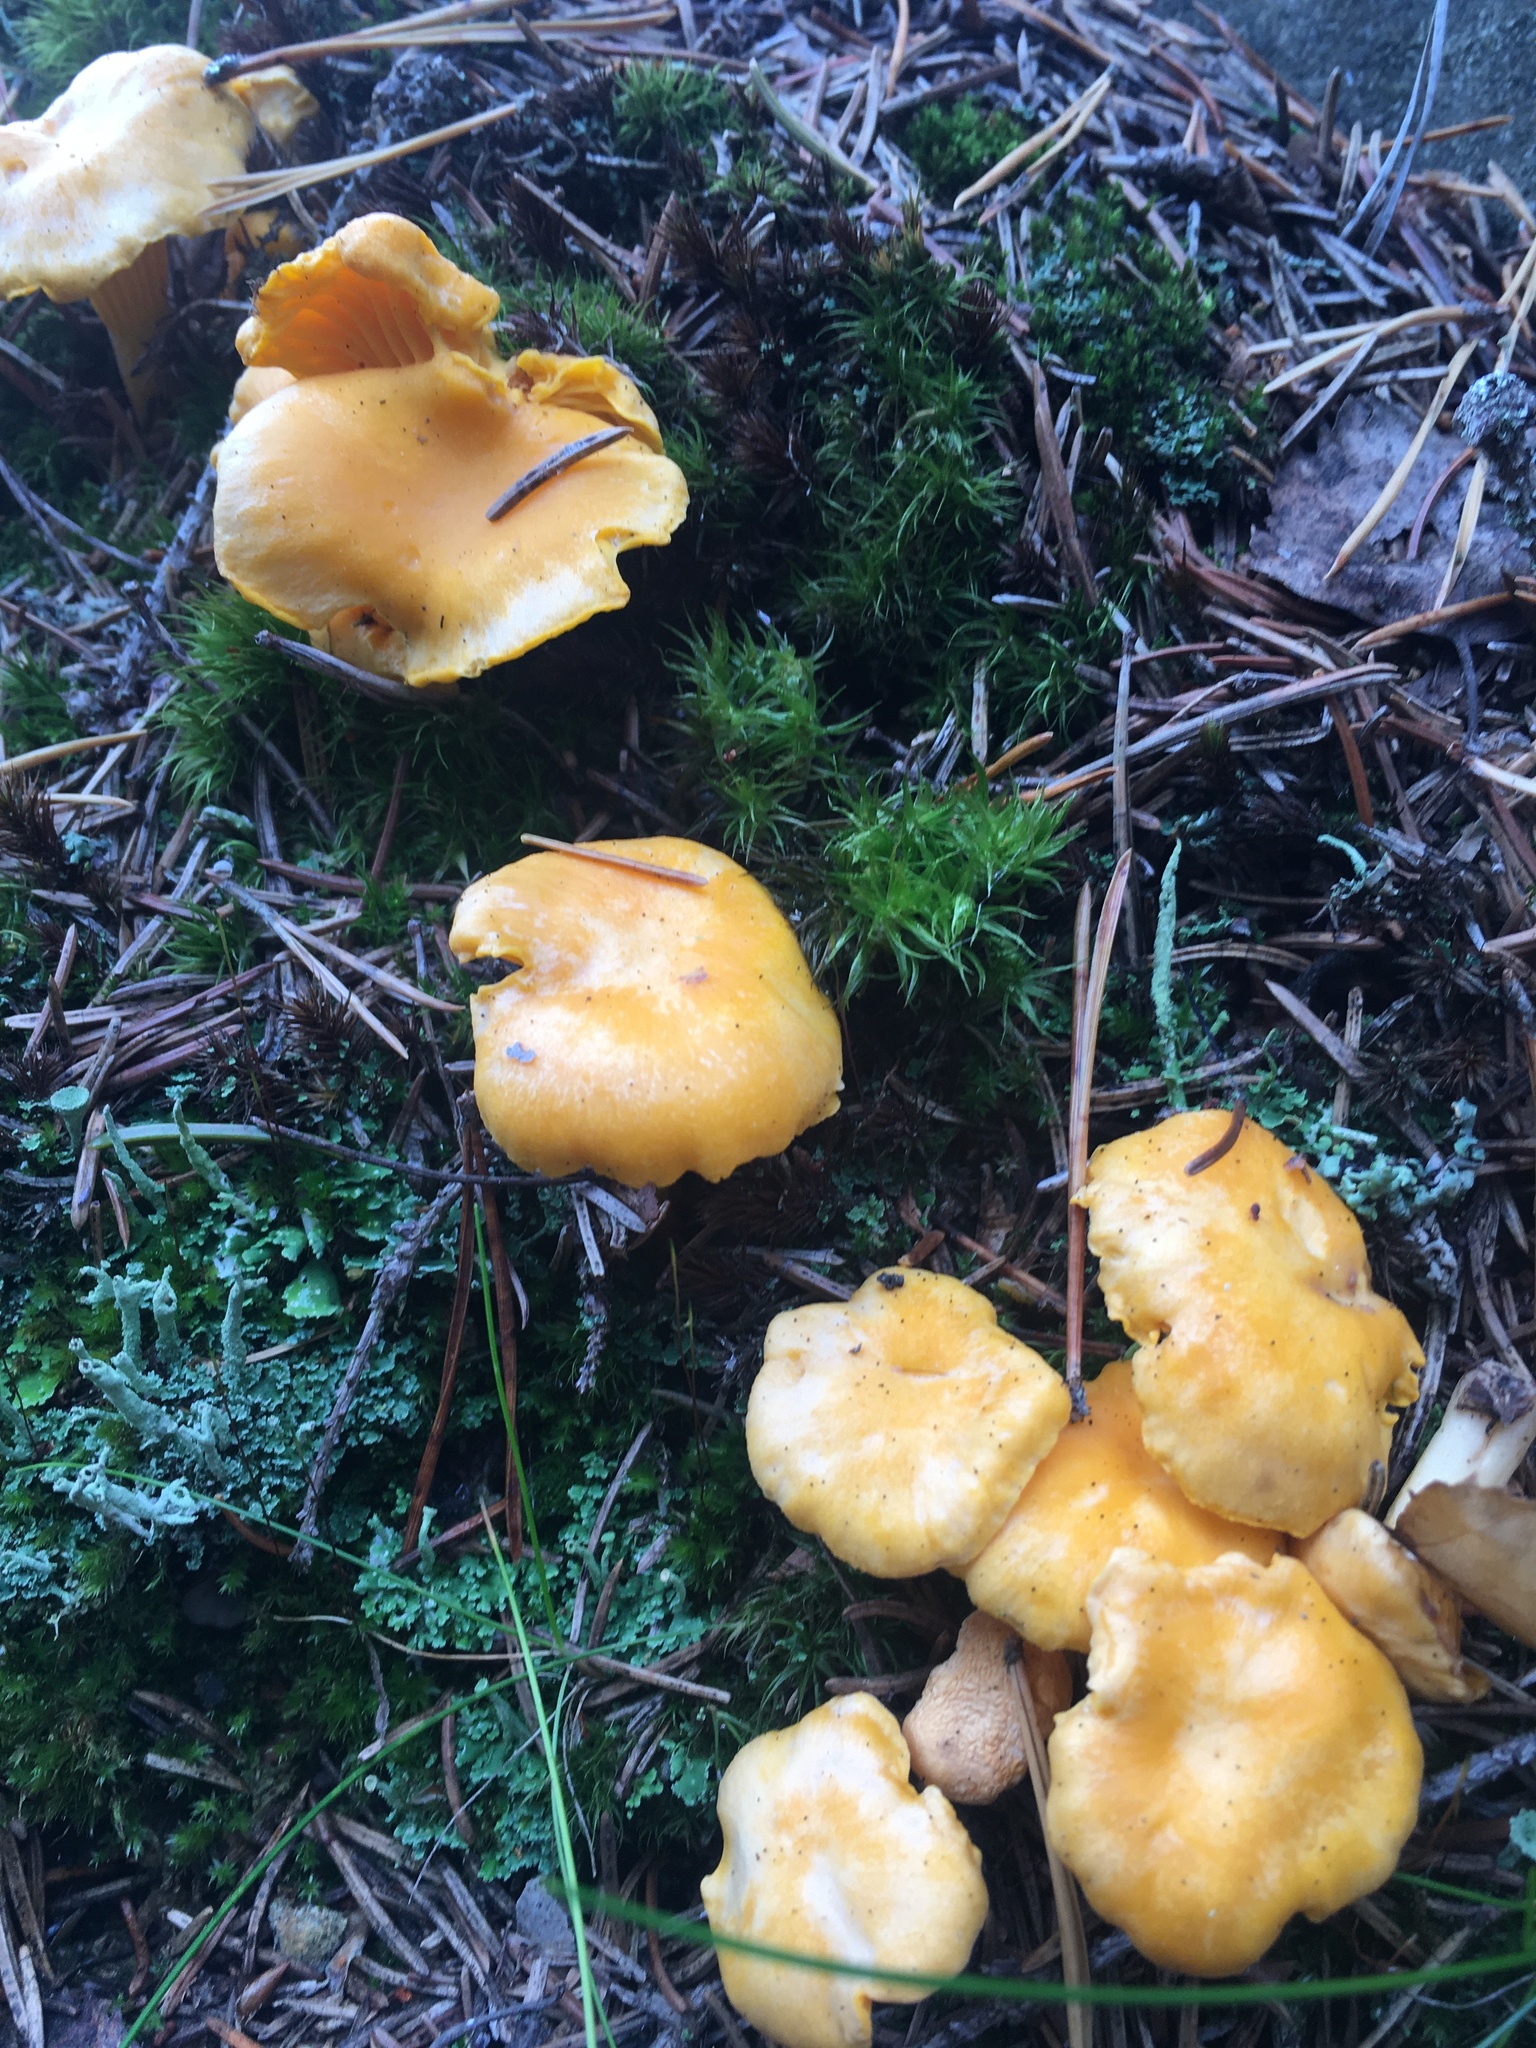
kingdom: Fungi
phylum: Basidiomycota
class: Agaricomycetes
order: Cantharellales
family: Hydnaceae
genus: Cantharellus
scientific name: Cantharellus cibarius
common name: Chanterelle
